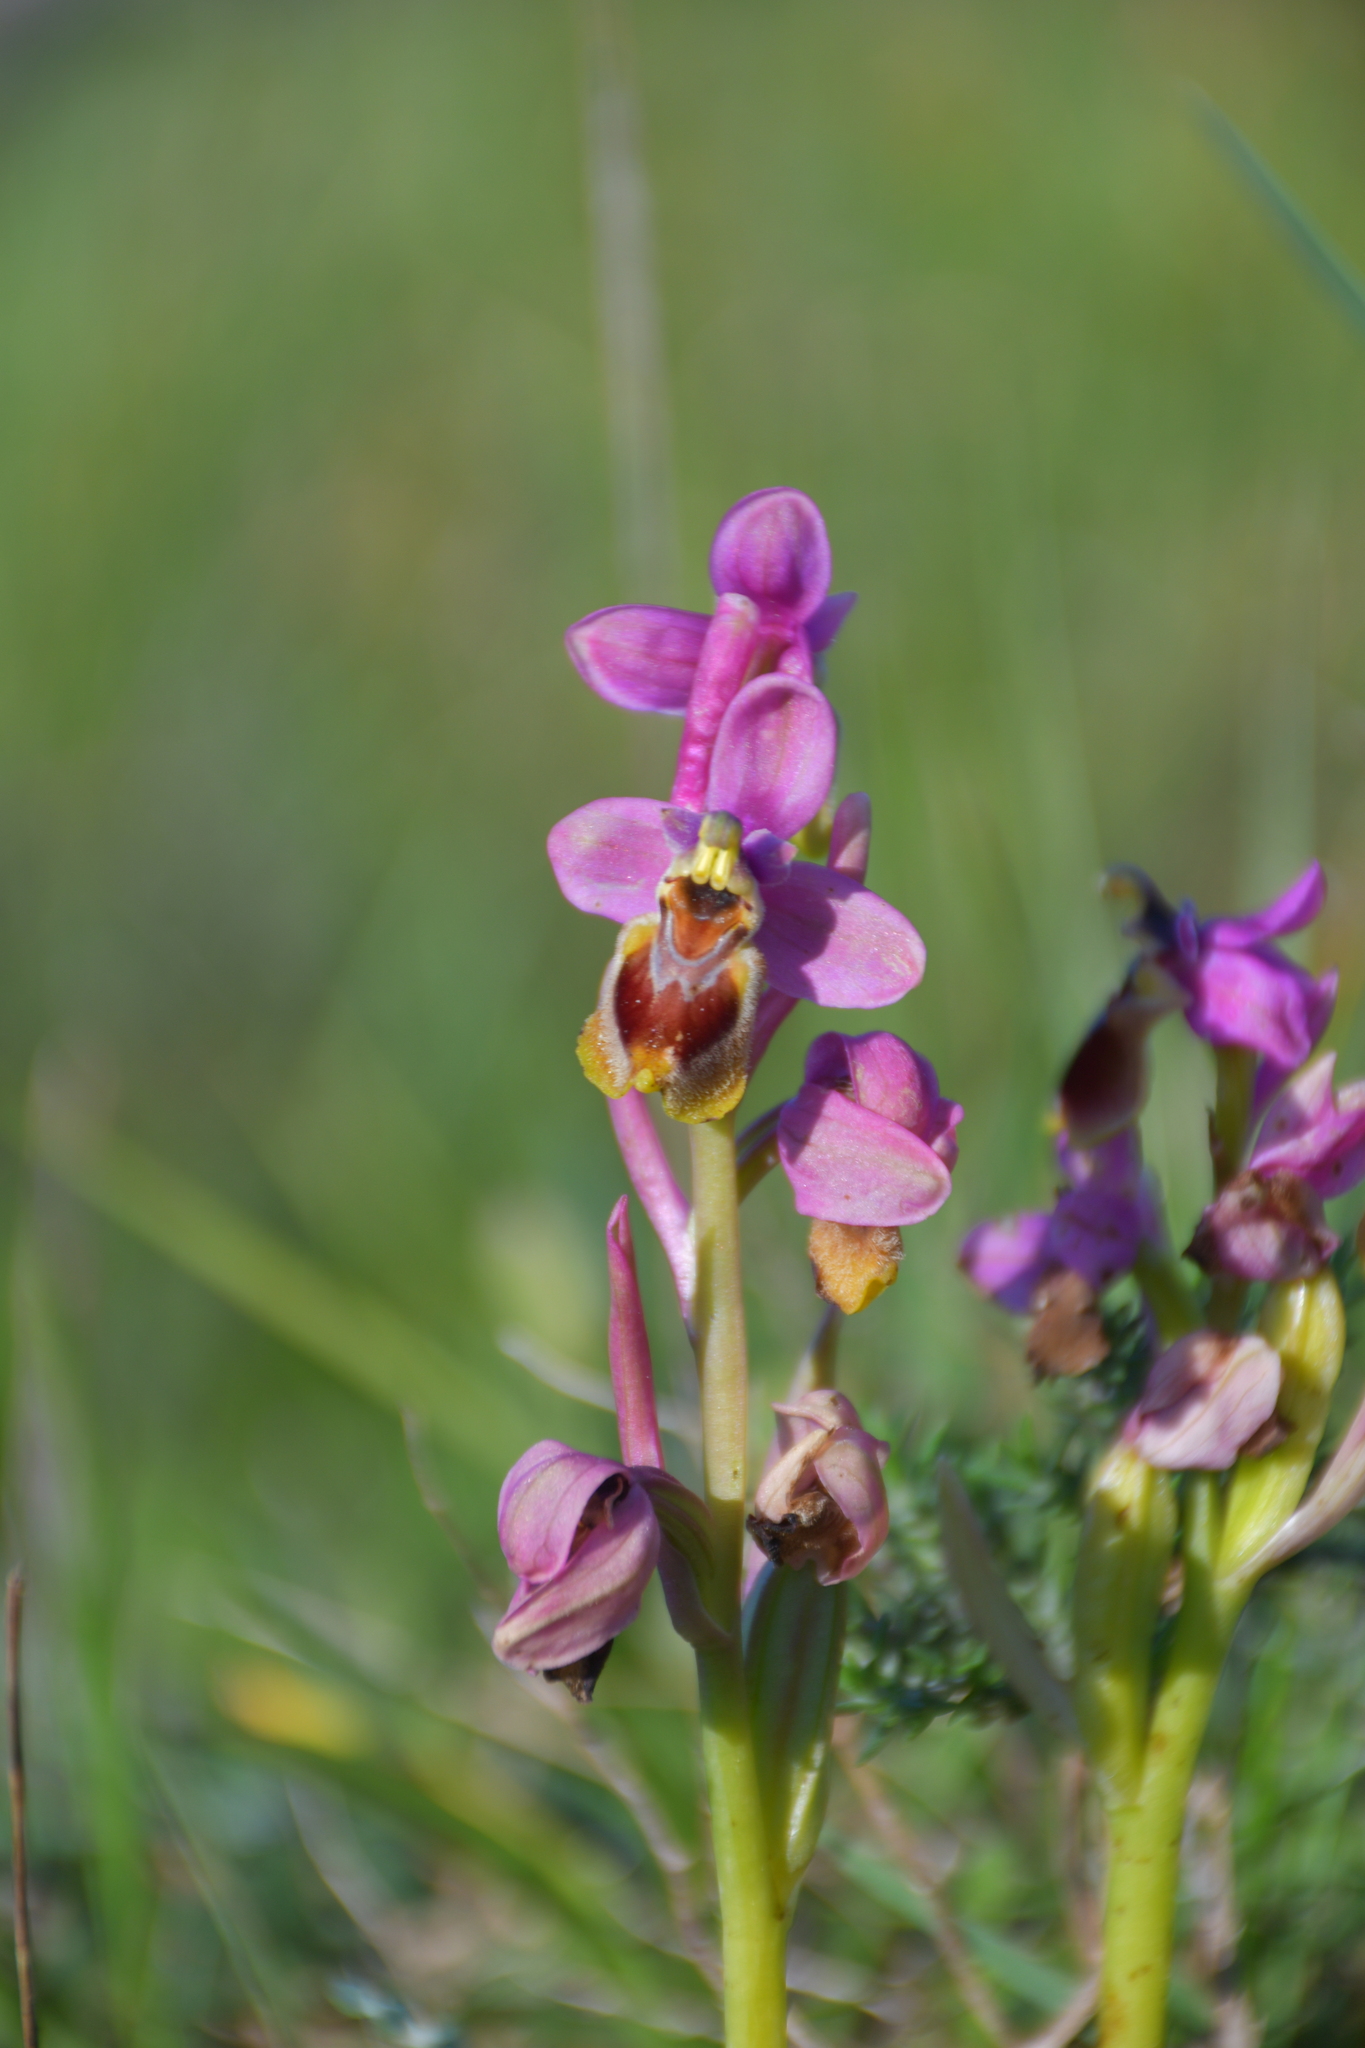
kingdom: Plantae
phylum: Tracheophyta
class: Liliopsida
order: Asparagales
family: Orchidaceae
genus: Ophrys
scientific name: Ophrys tenthredinifera
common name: Sawfly orchid
